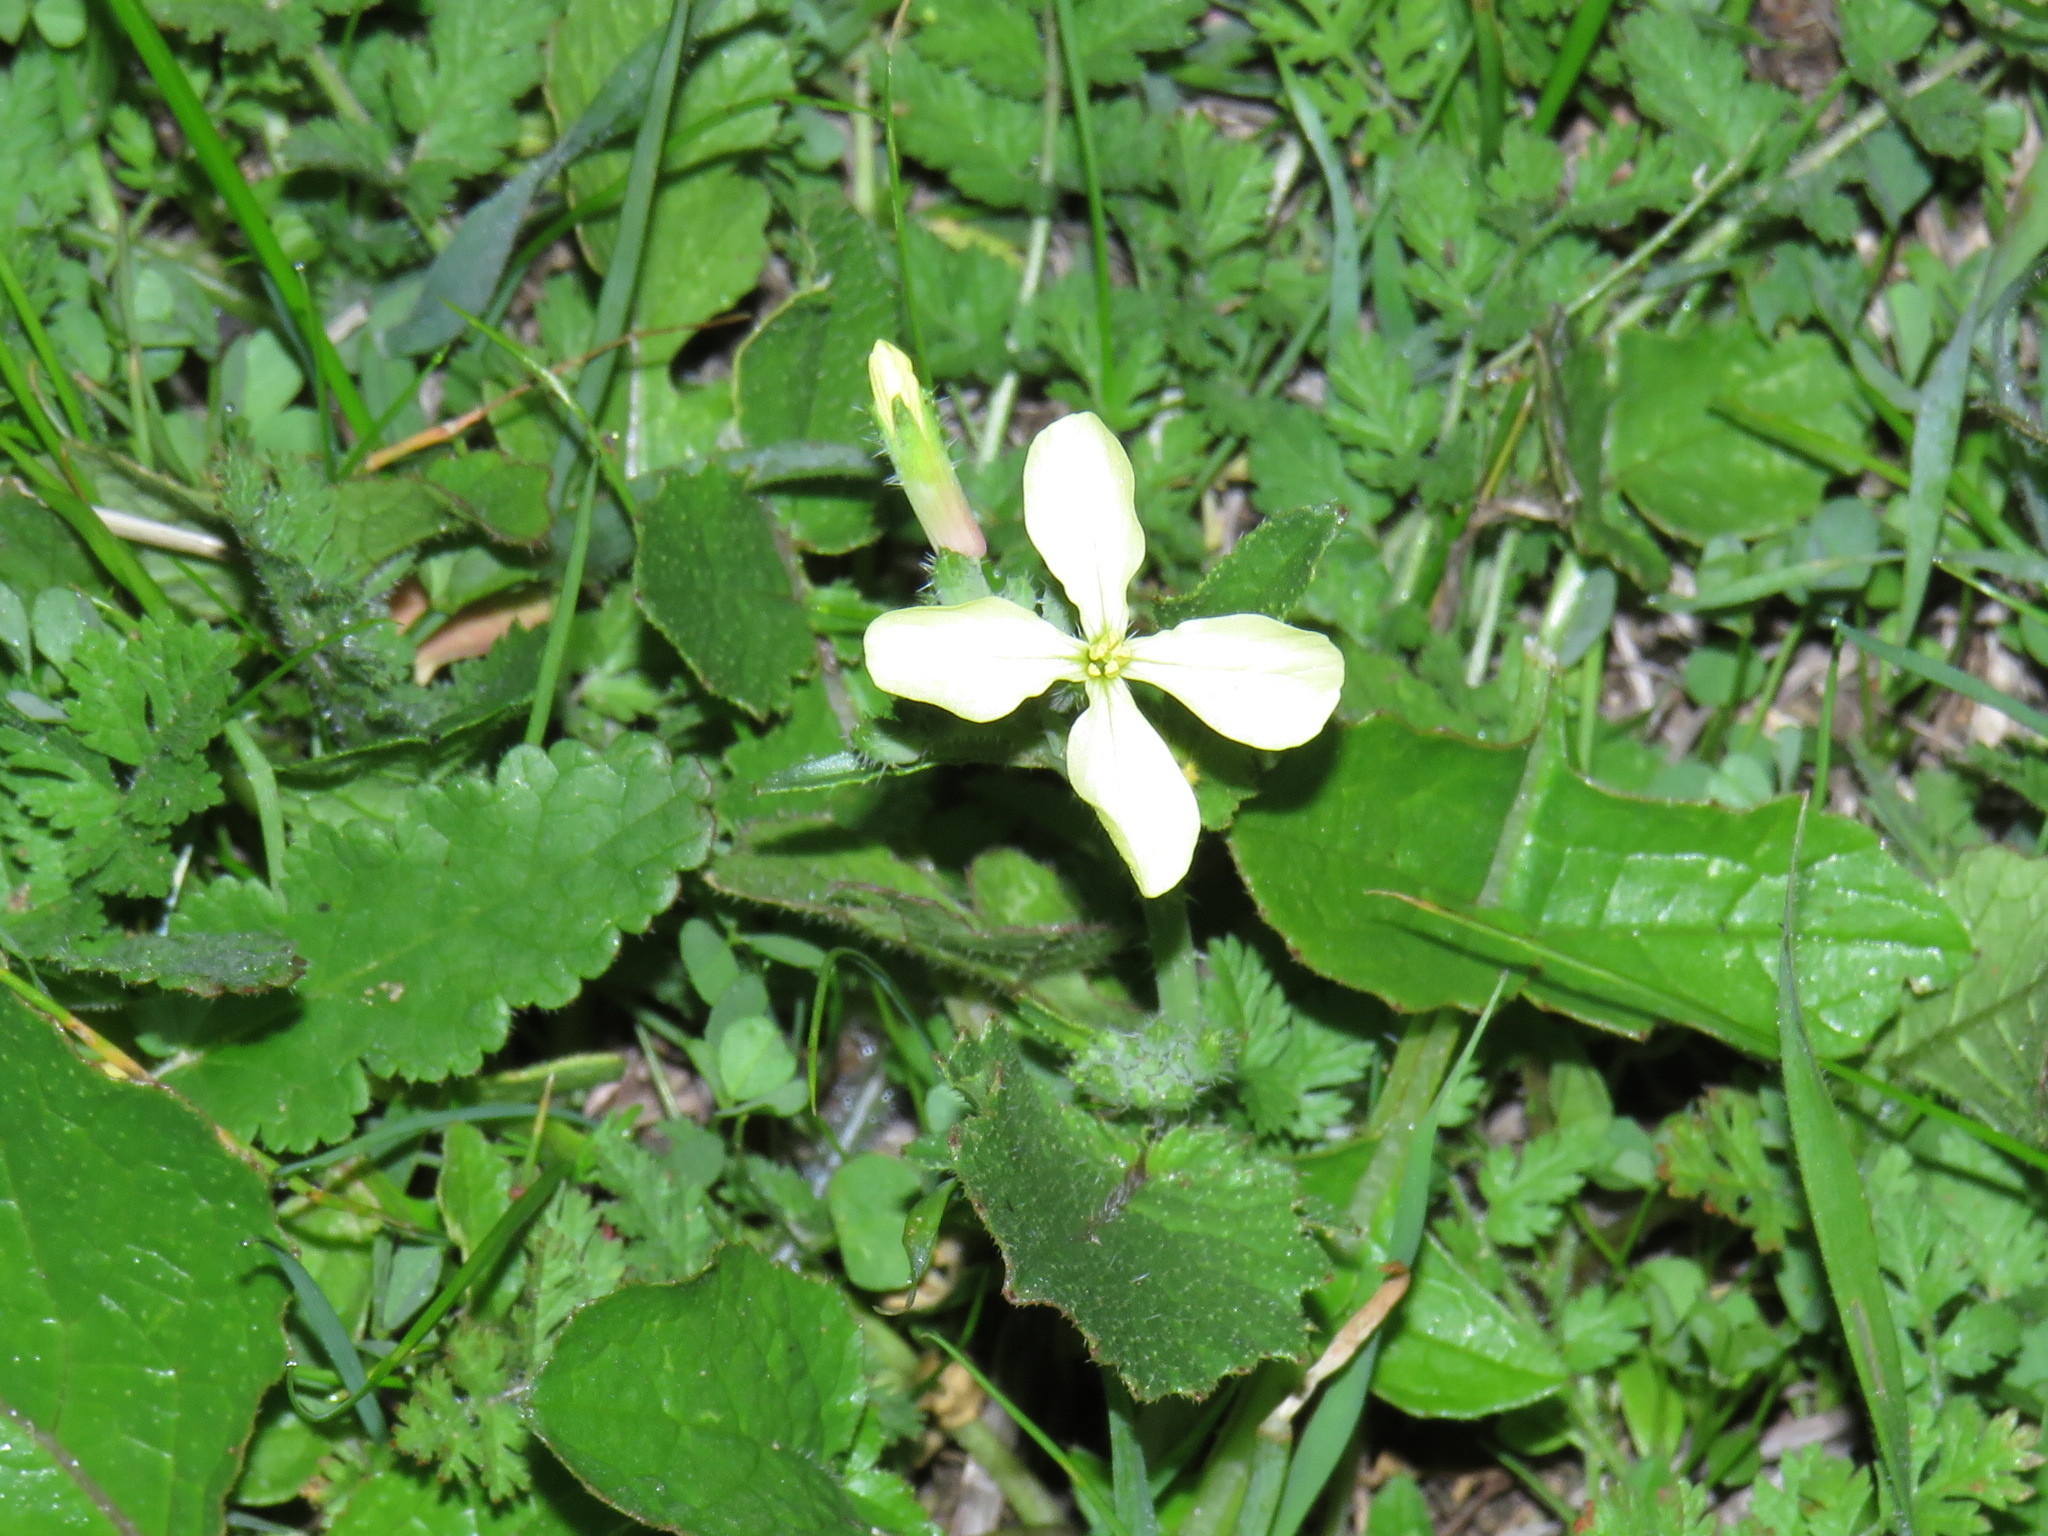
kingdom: Plantae
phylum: Tracheophyta
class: Magnoliopsida
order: Brassicales
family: Brassicaceae
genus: Raphanus
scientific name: Raphanus raphanistrum
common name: Wild radish
